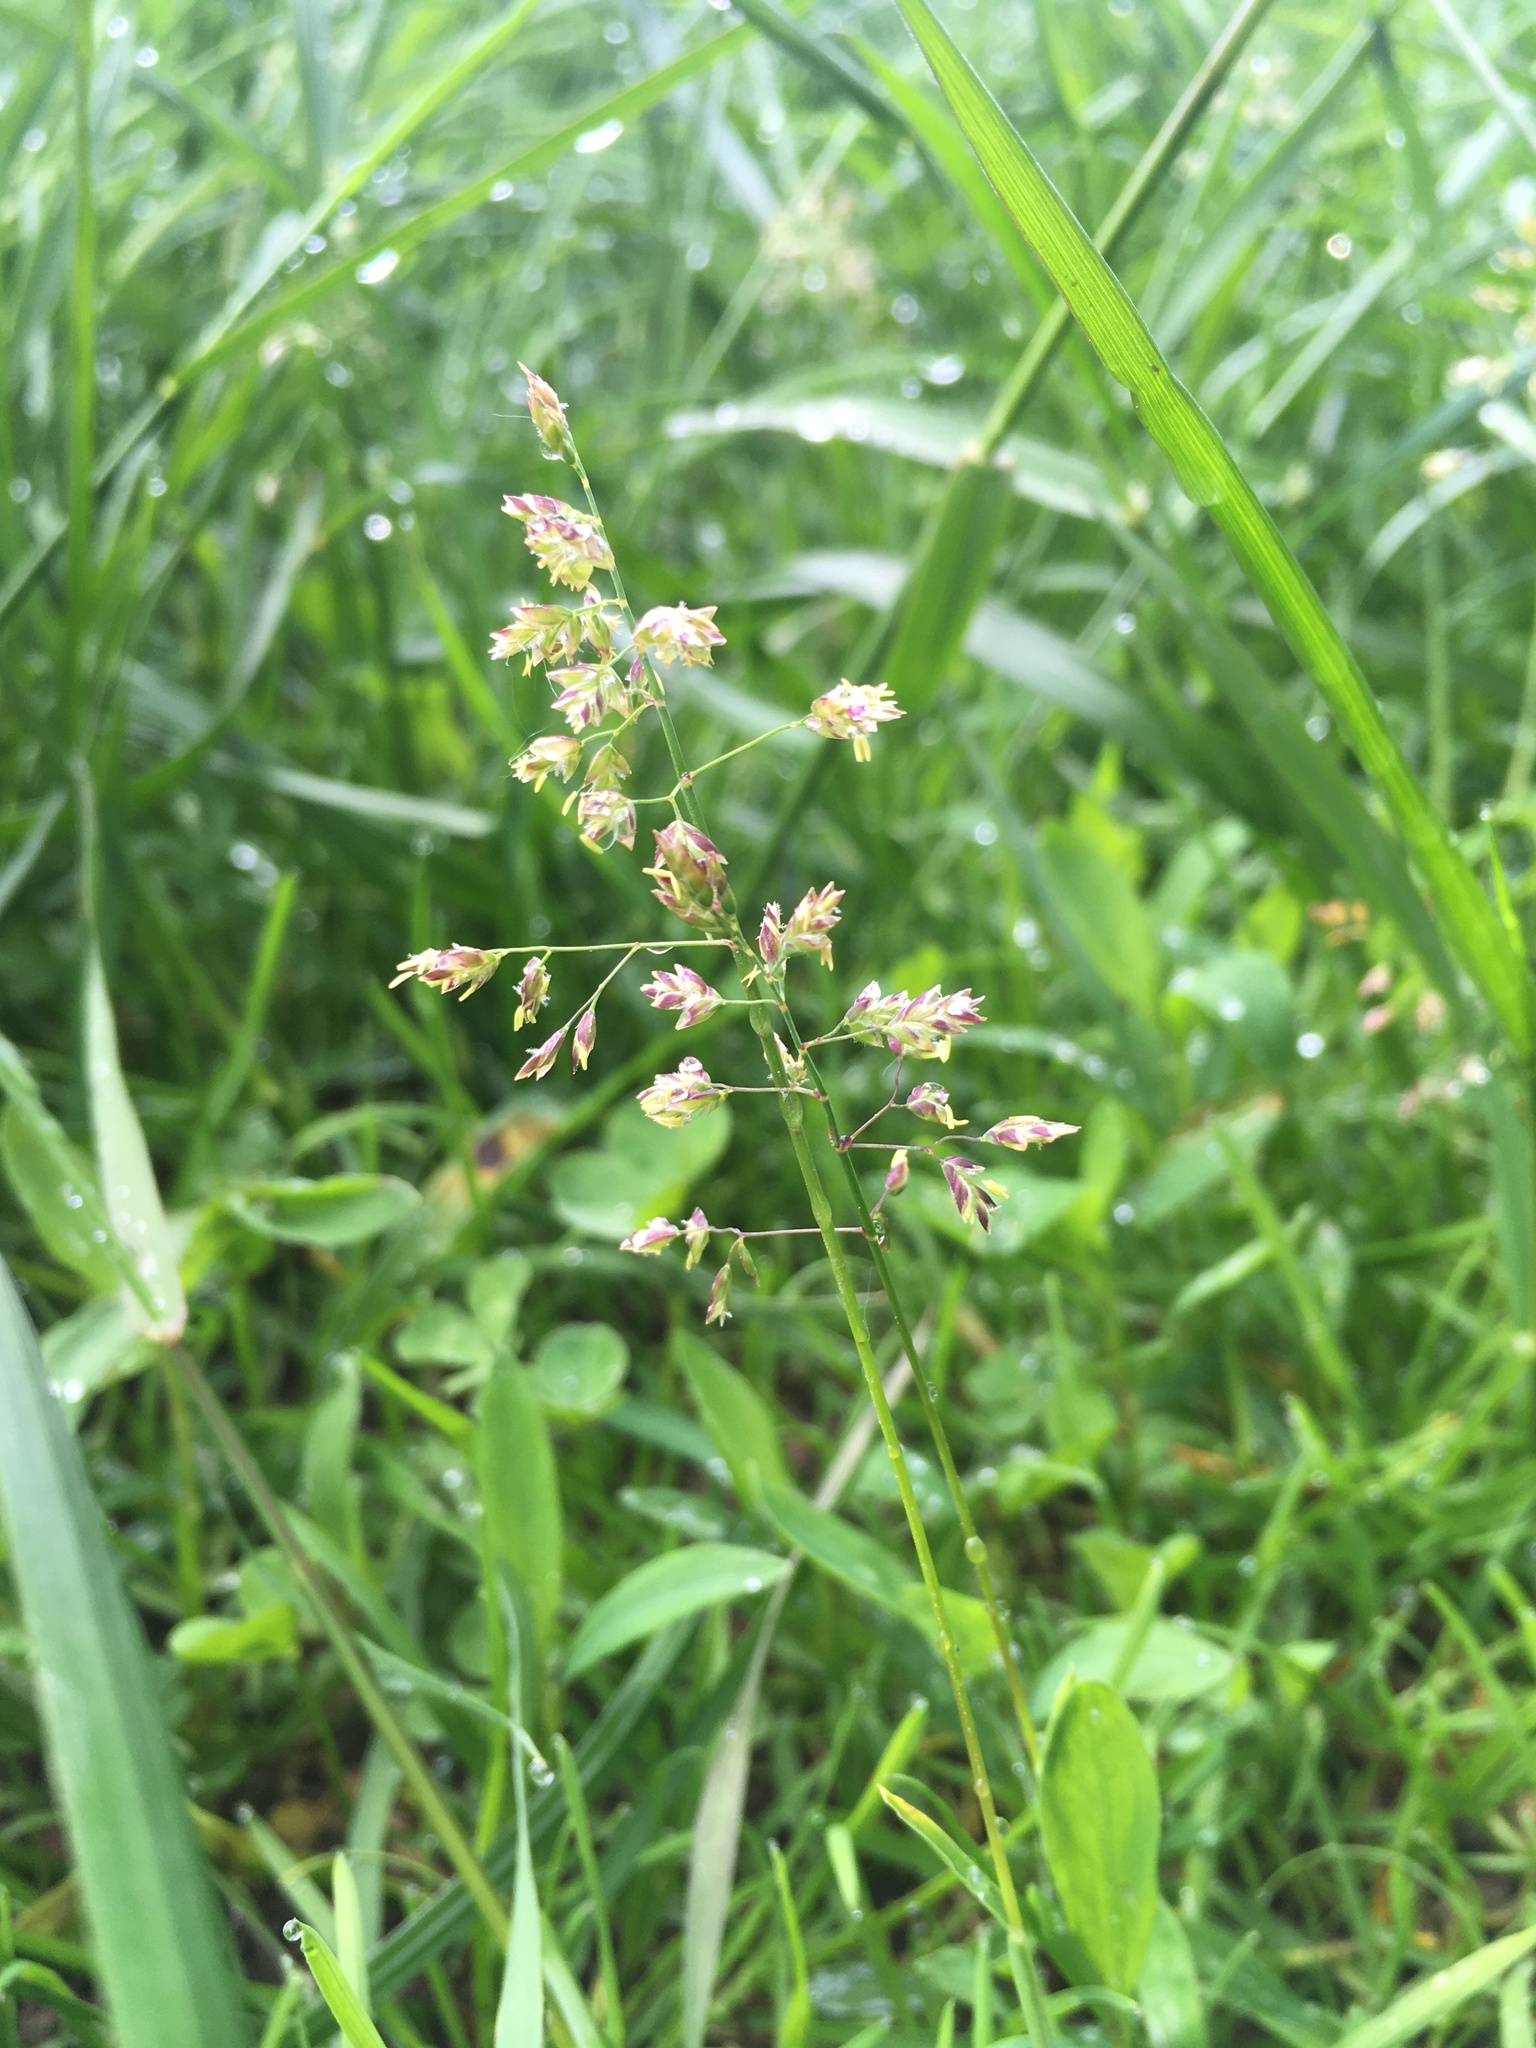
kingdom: Plantae
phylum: Tracheophyta
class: Liliopsida
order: Poales
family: Poaceae
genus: Poa
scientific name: Poa pratensis
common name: Kentucky bluegrass
